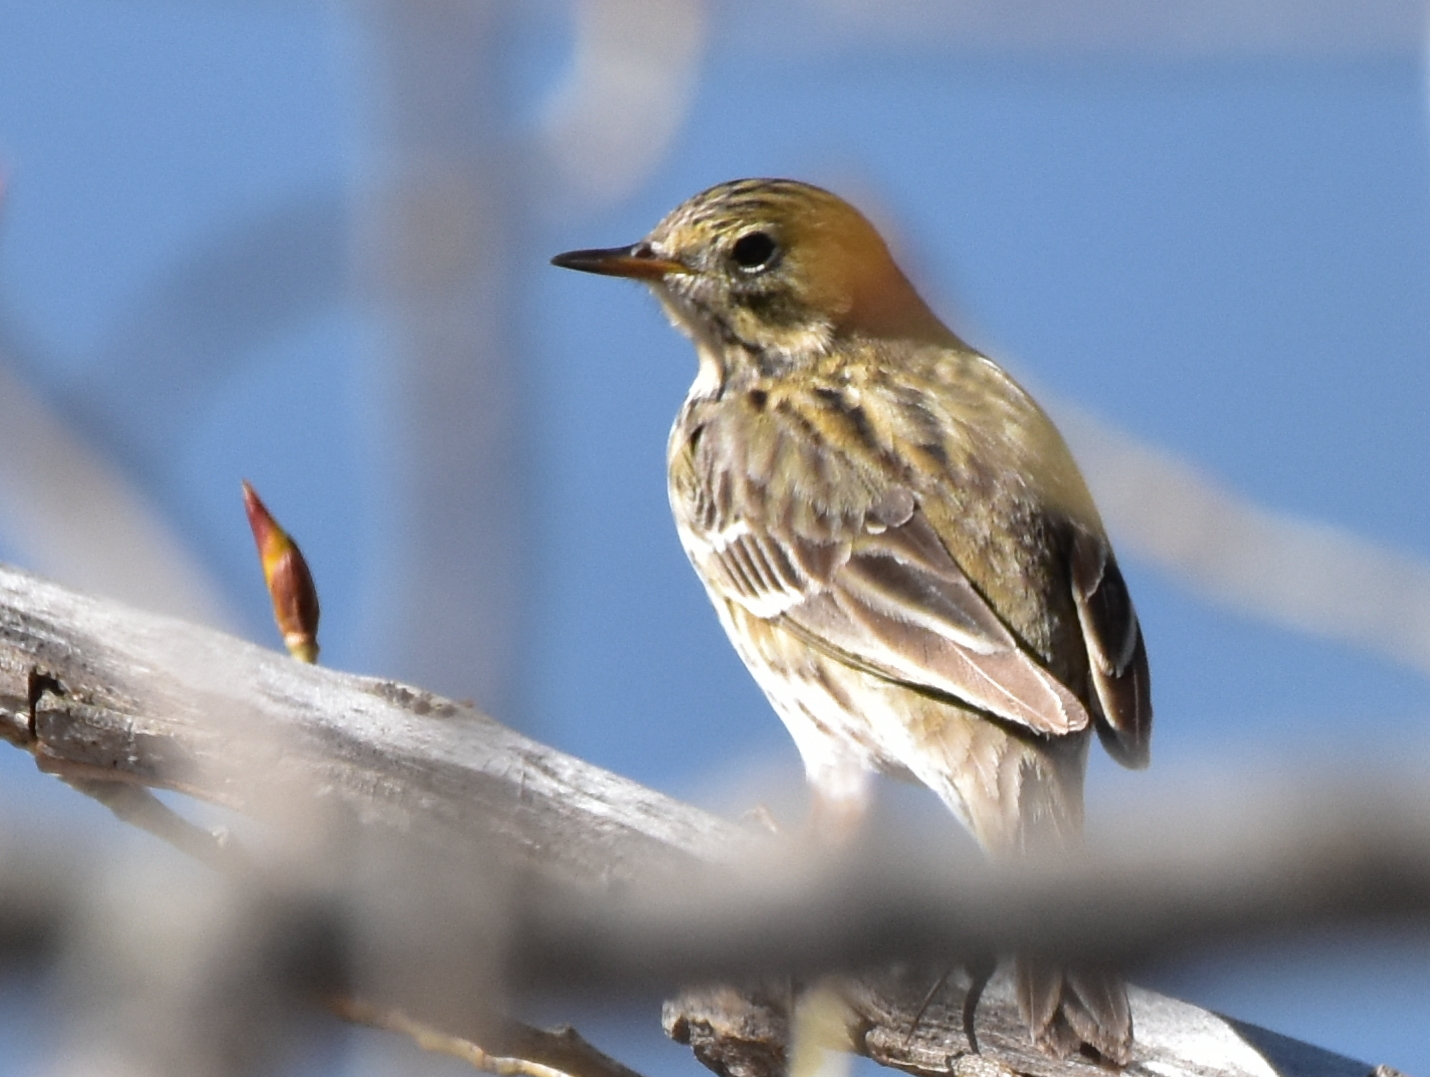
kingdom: Animalia
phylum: Chordata
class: Aves
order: Passeriformes
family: Motacillidae
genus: Anthus
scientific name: Anthus pratensis
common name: Meadow pipit
